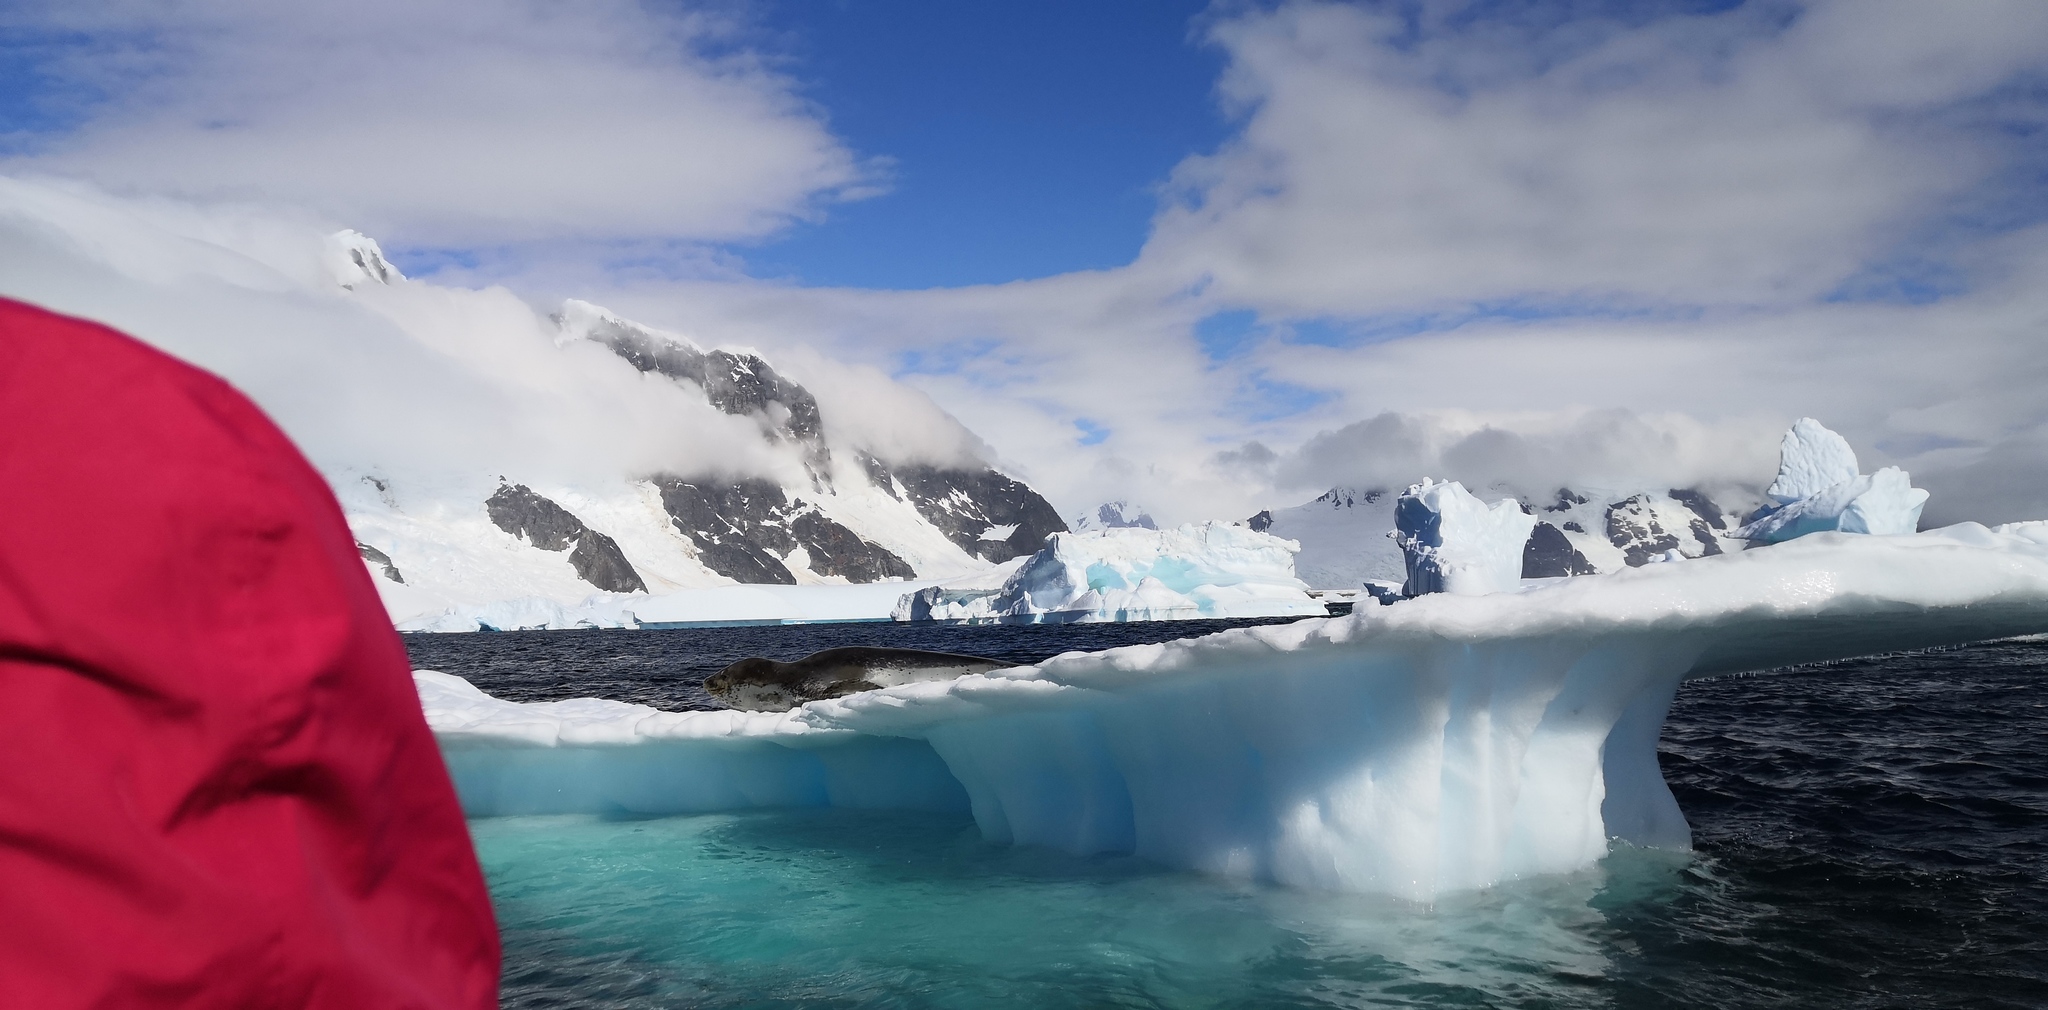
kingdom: Animalia
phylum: Chordata
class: Mammalia
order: Carnivora
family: Phocidae
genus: Hydrurga
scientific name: Hydrurga leptonyx
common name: Leopard seal
